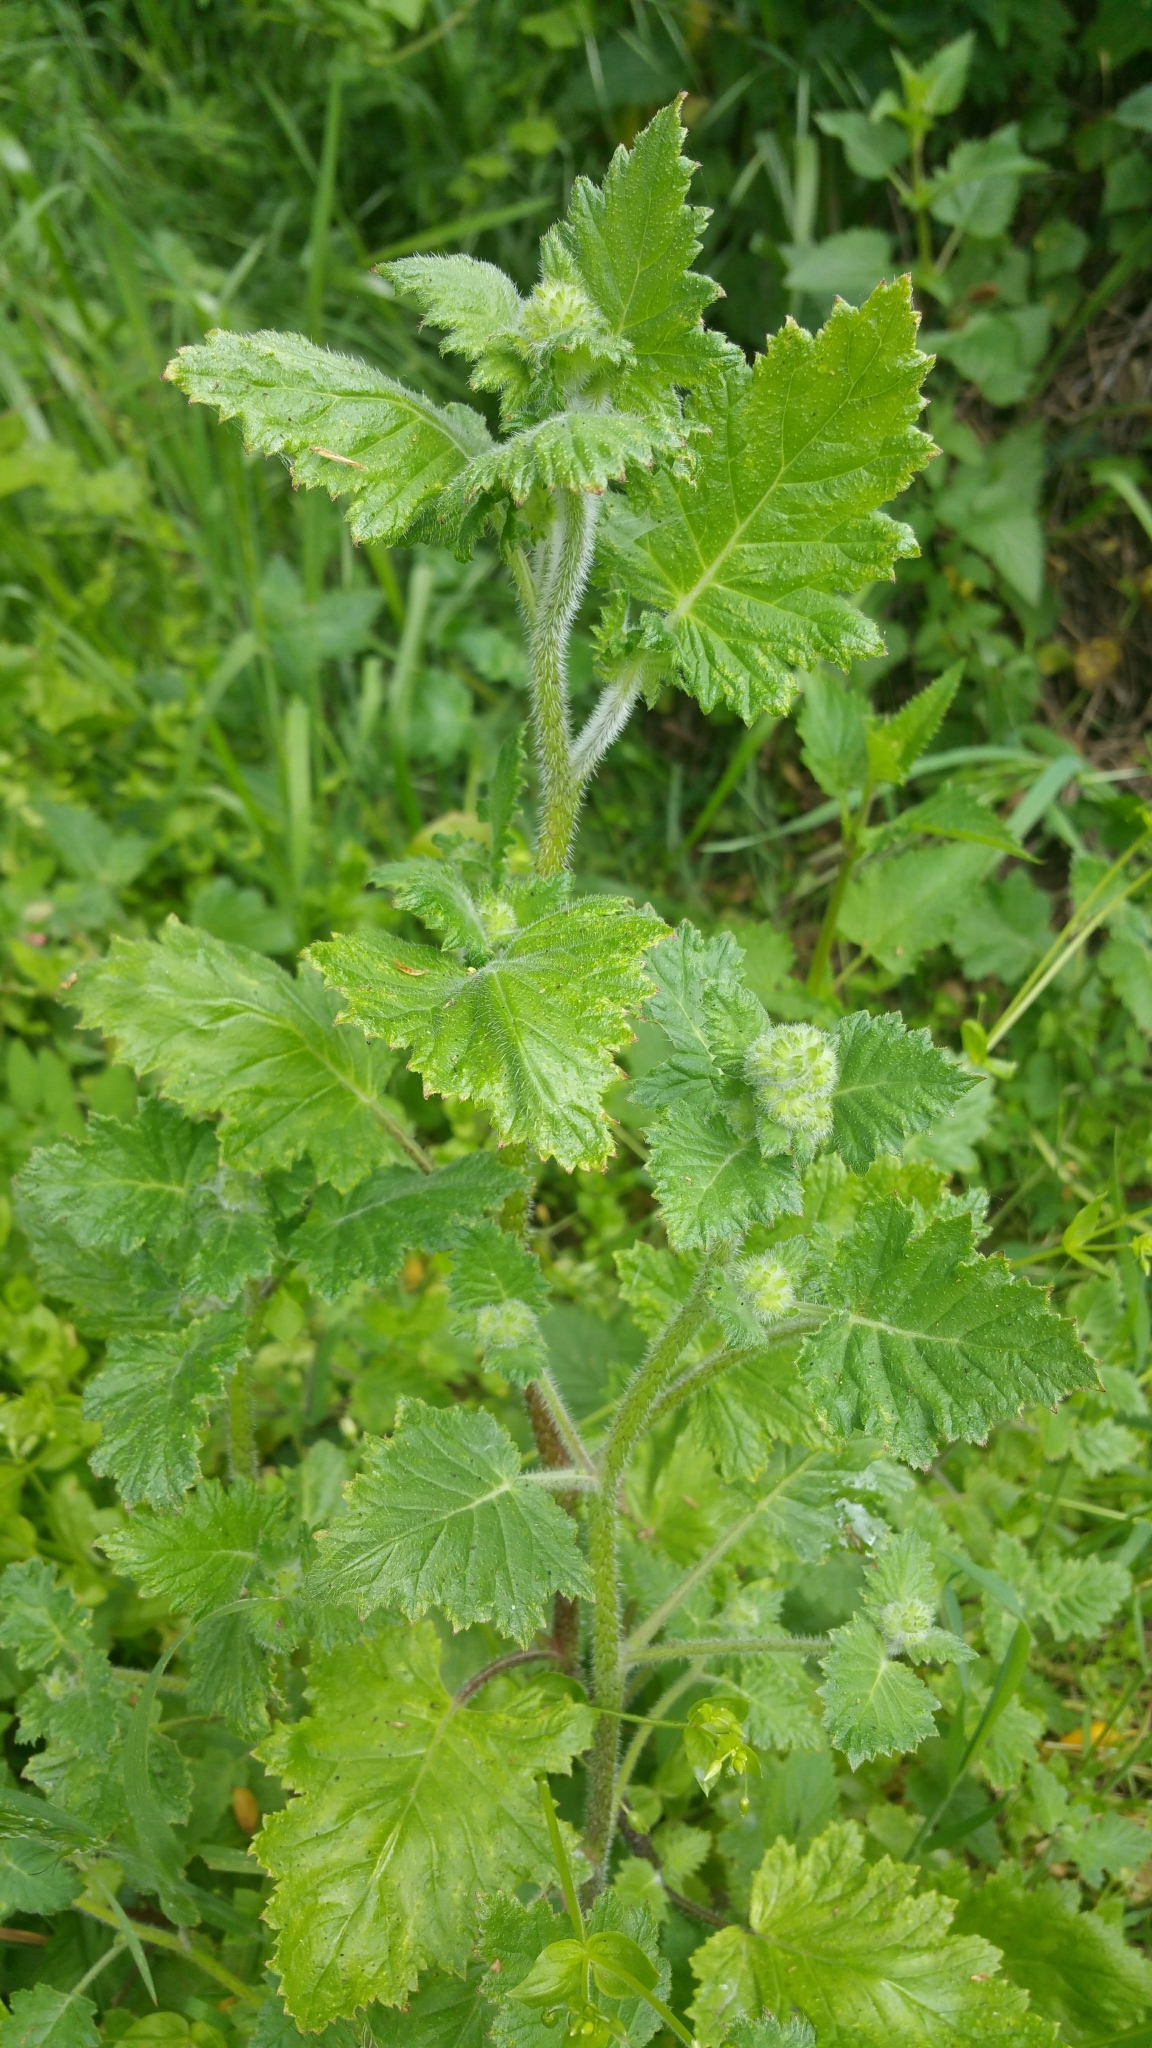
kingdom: Plantae
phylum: Tracheophyta
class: Magnoliopsida
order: Boraginales
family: Hydrophyllaceae
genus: Phacelia
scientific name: Phacelia malvifolia
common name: Mallow-leaf phacelia
